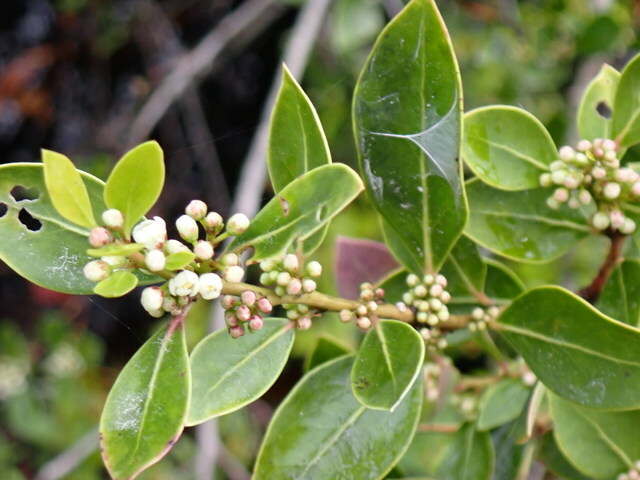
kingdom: Plantae
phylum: Tracheophyta
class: Magnoliopsida
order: Aquifoliales
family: Aquifoliaceae
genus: Ilex
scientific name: Ilex coriacea
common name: Sweet gallberry
